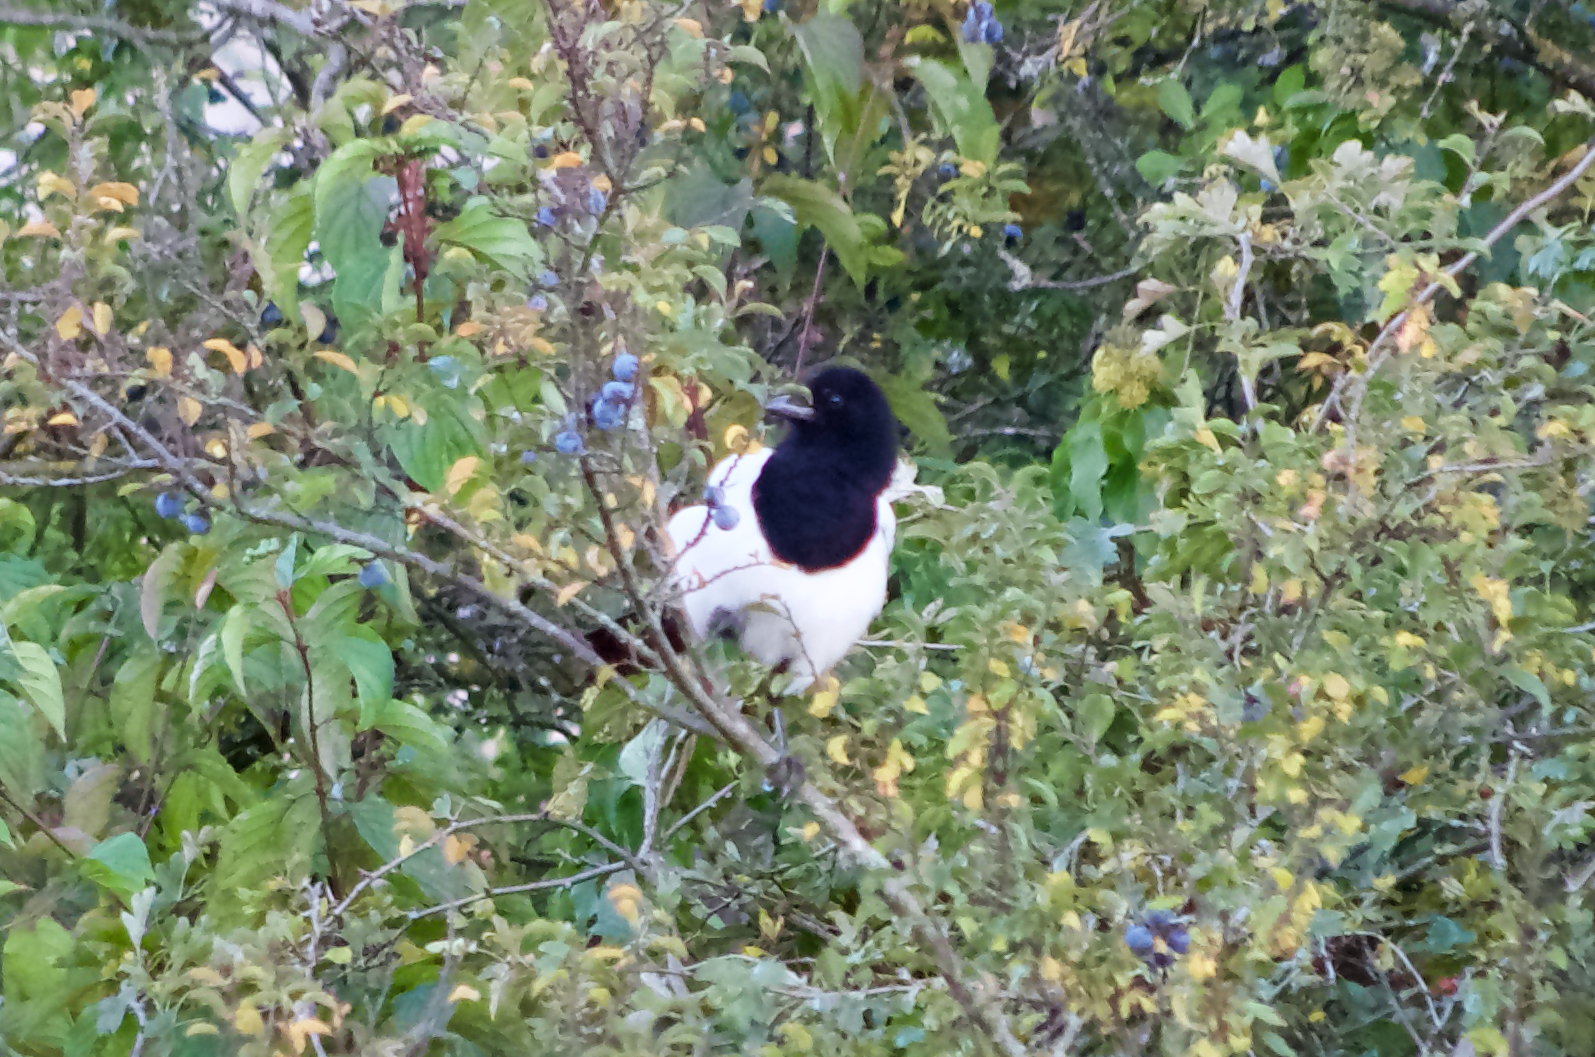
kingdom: Animalia
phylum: Chordata
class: Aves
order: Passeriformes
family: Corvidae
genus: Pica
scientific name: Pica pica
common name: Eurasian magpie
